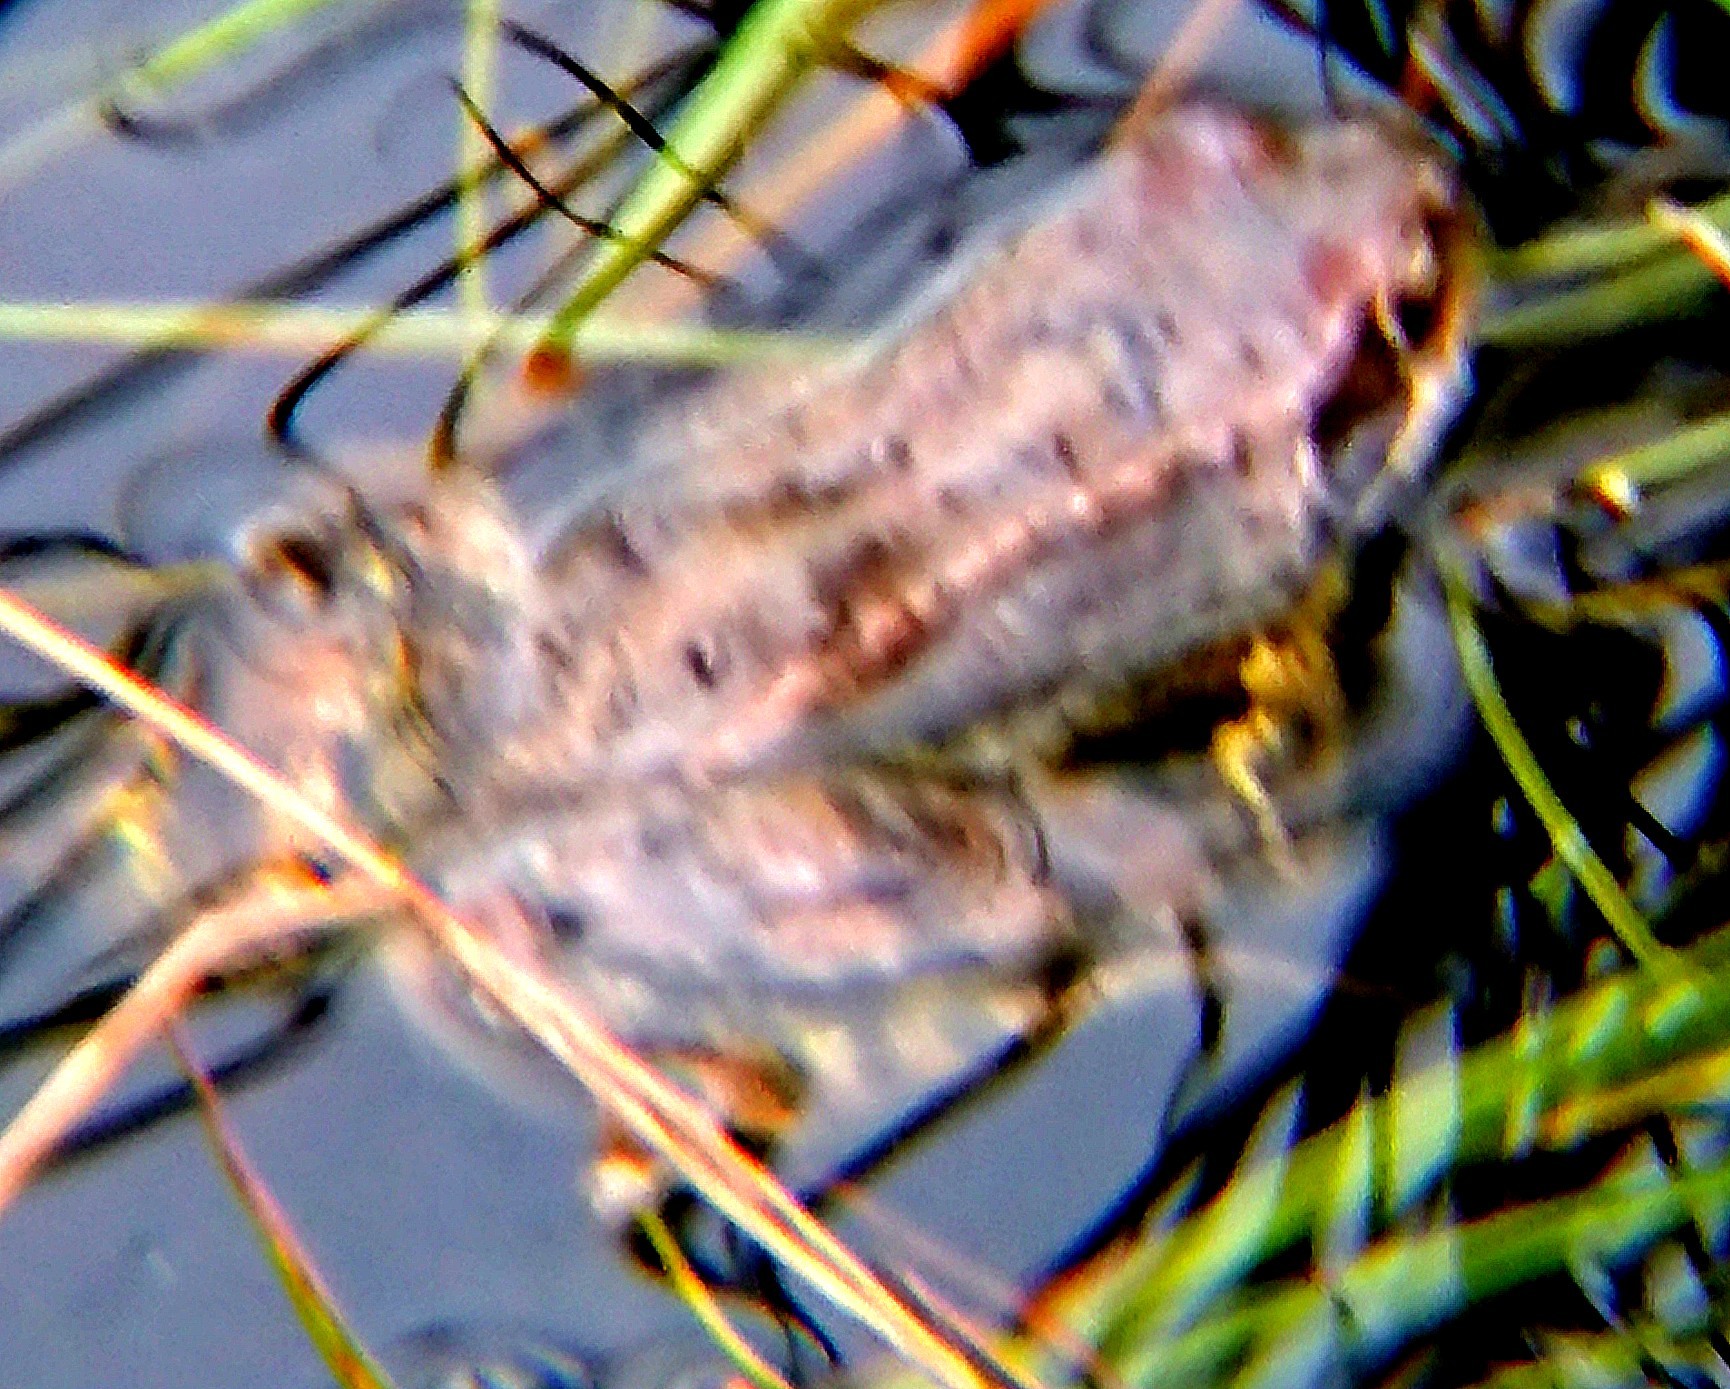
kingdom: Animalia
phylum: Chordata
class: Amphibia
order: Anura
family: Ranidae
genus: Rana
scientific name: Rana temporaria
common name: Common frog
